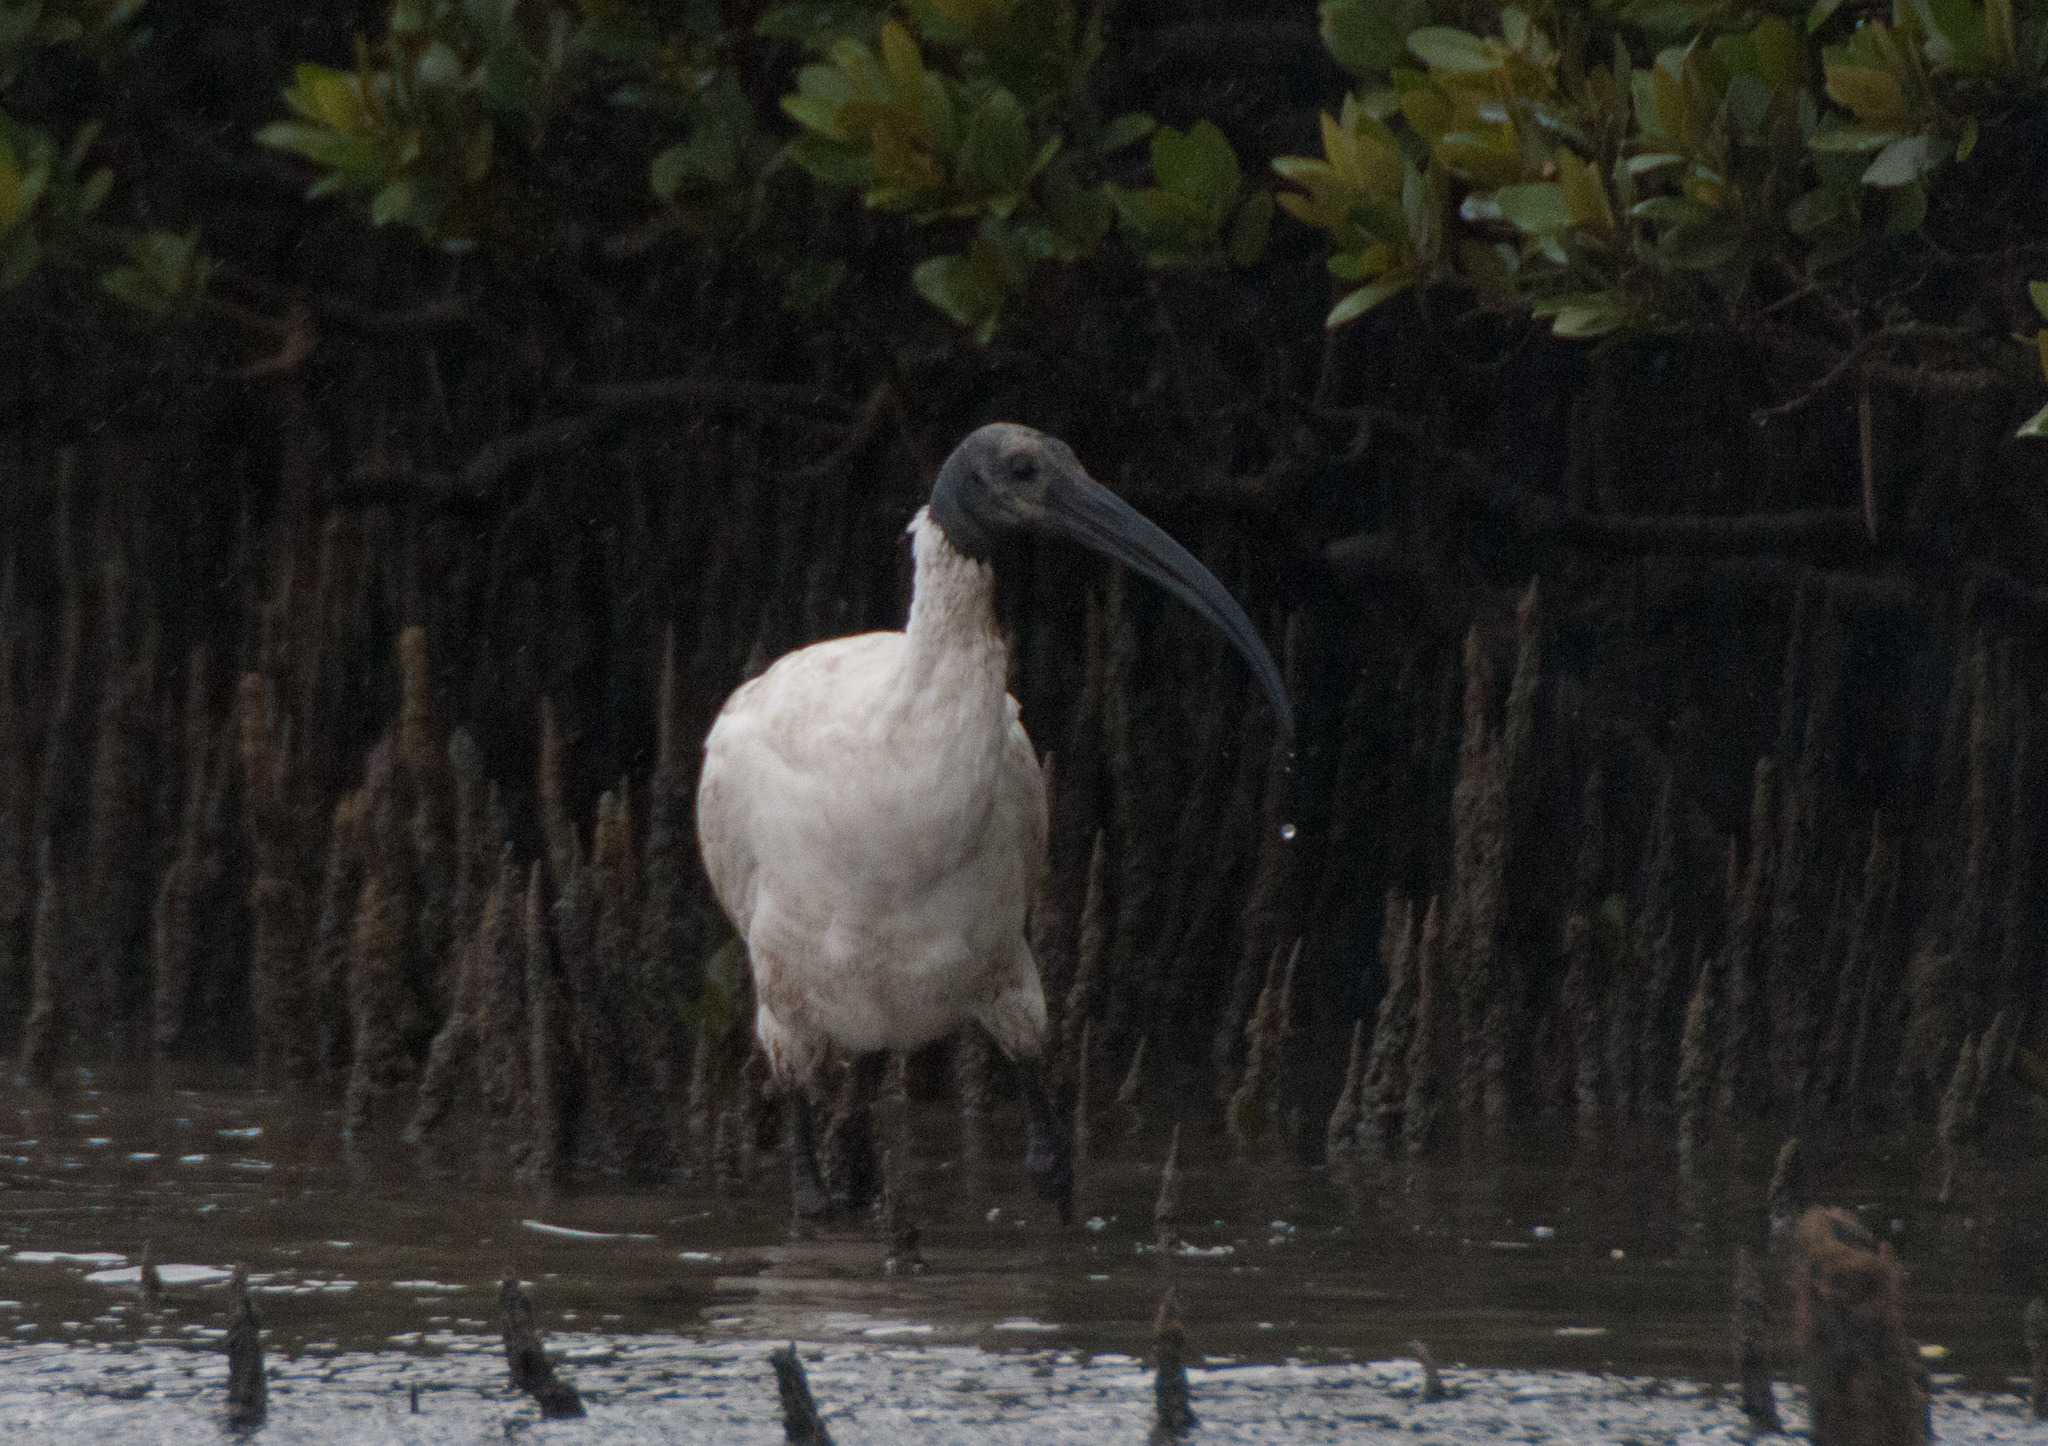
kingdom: Animalia
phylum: Chordata
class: Aves
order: Pelecaniformes
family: Threskiornithidae
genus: Threskiornis
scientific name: Threskiornis molucca
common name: Australian white ibis
